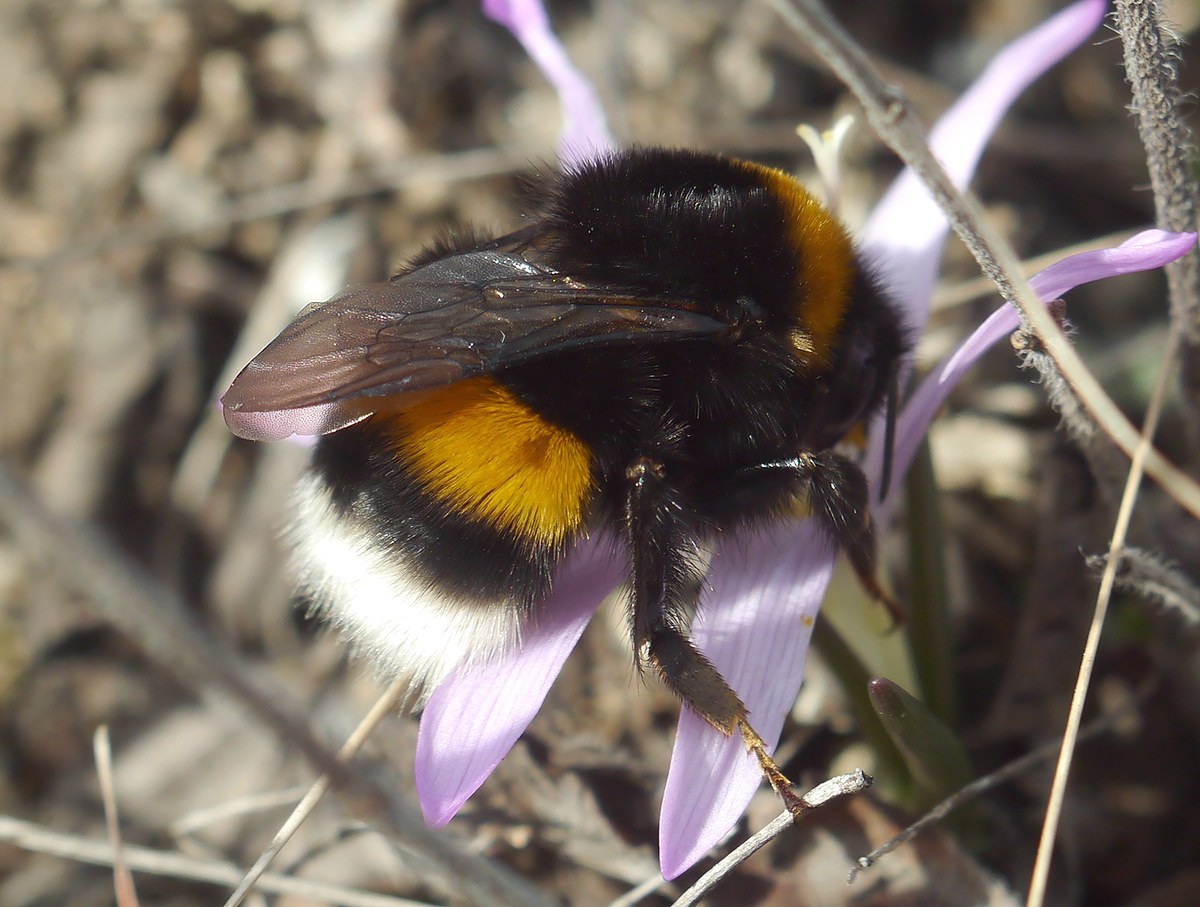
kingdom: Animalia
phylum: Arthropoda
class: Insecta
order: Hymenoptera
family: Apidae
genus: Bombus
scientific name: Bombus
